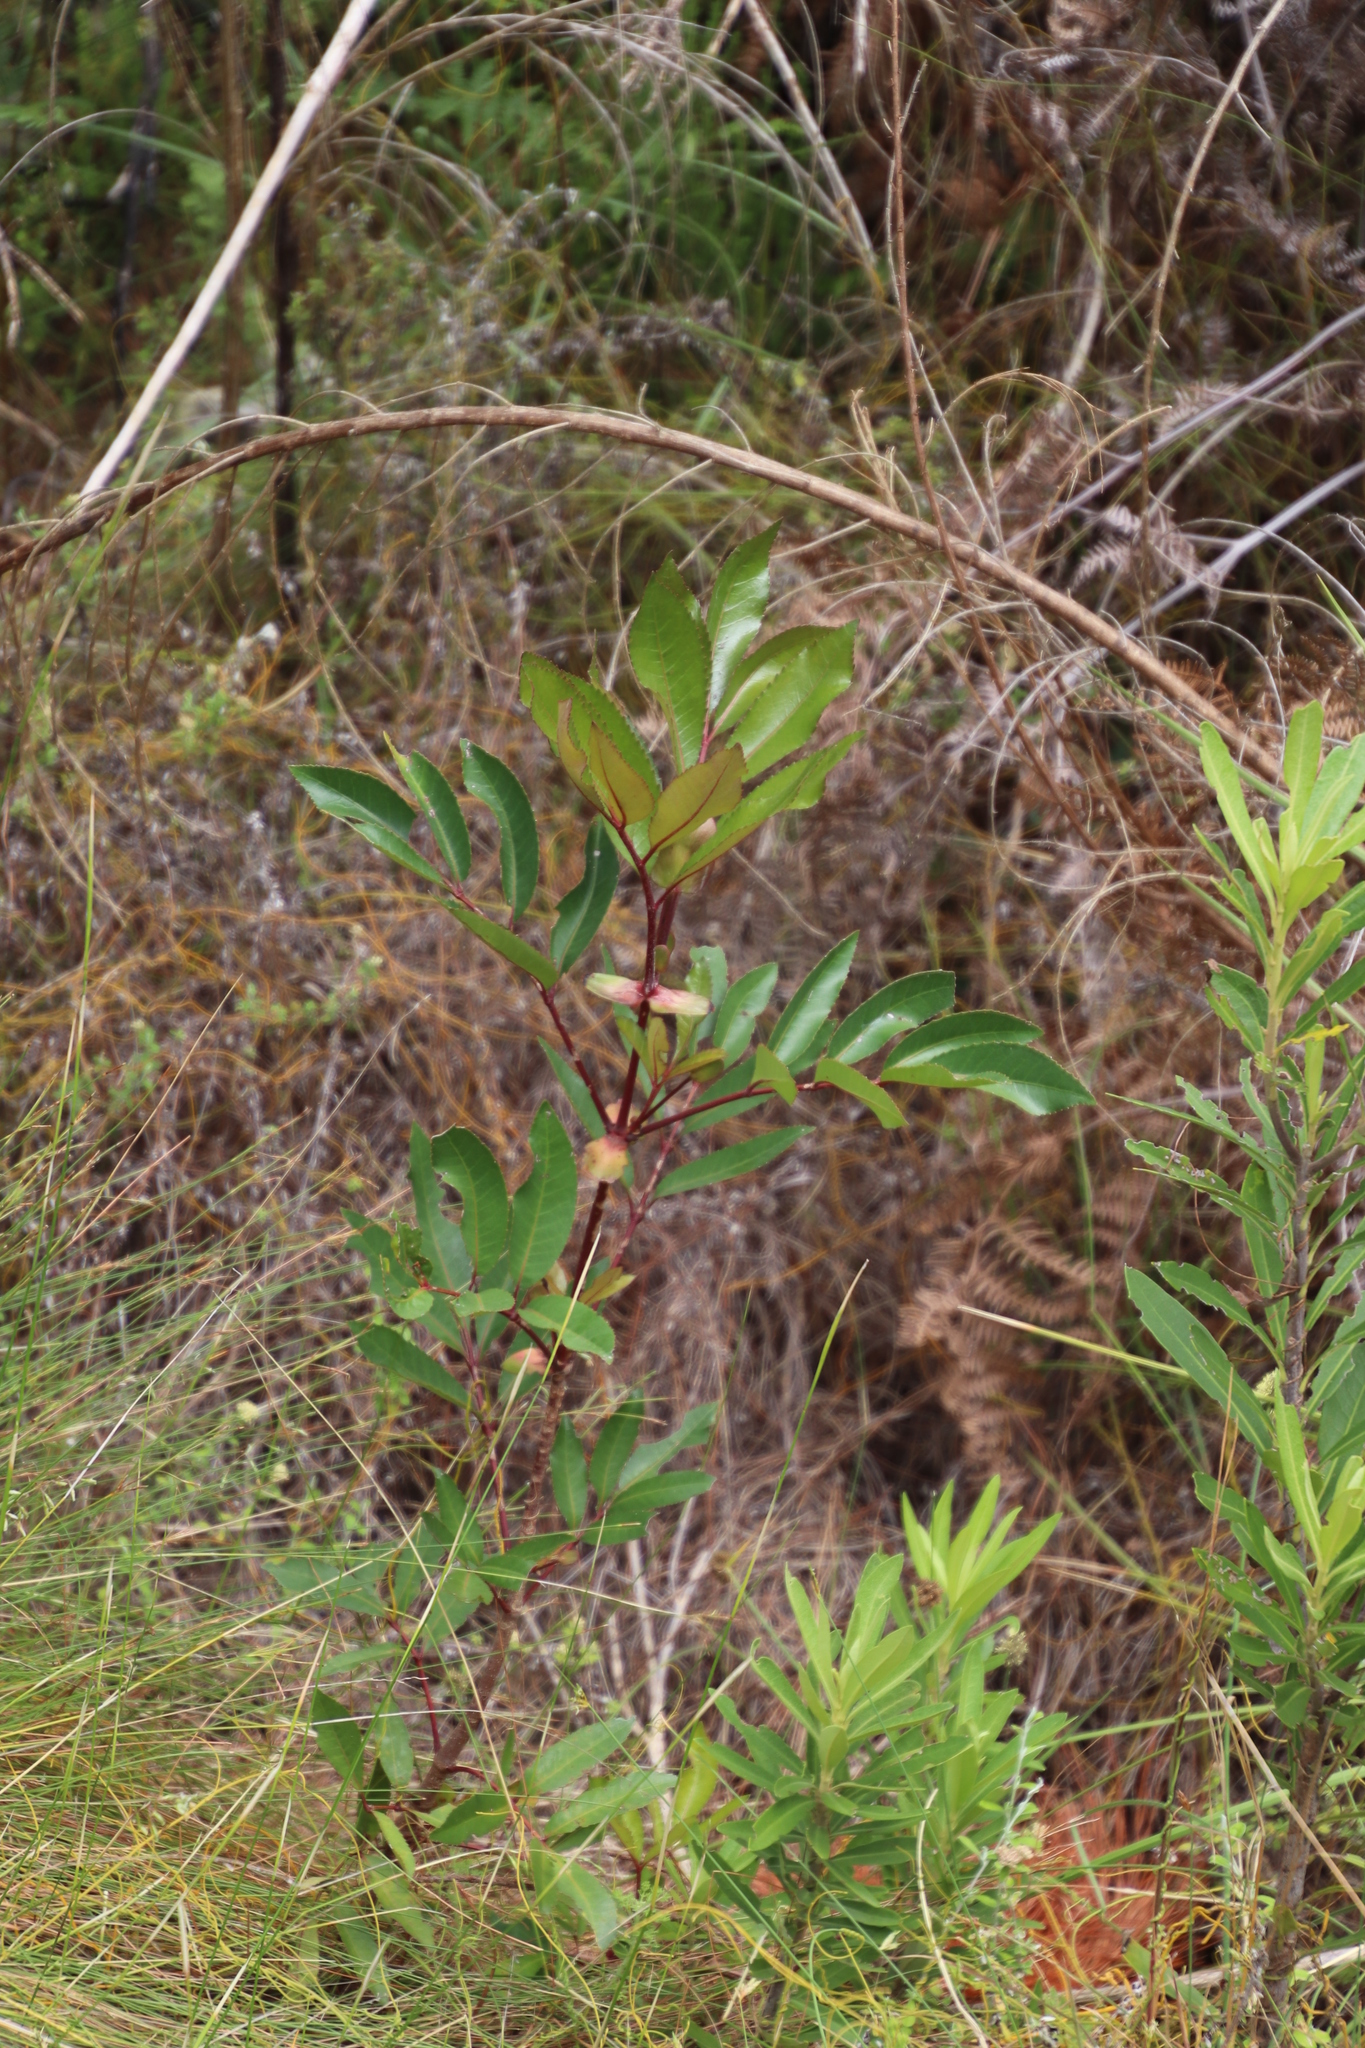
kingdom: Plantae
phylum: Tracheophyta
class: Magnoliopsida
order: Oxalidales
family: Cunoniaceae
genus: Cunonia
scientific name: Cunonia capensis
